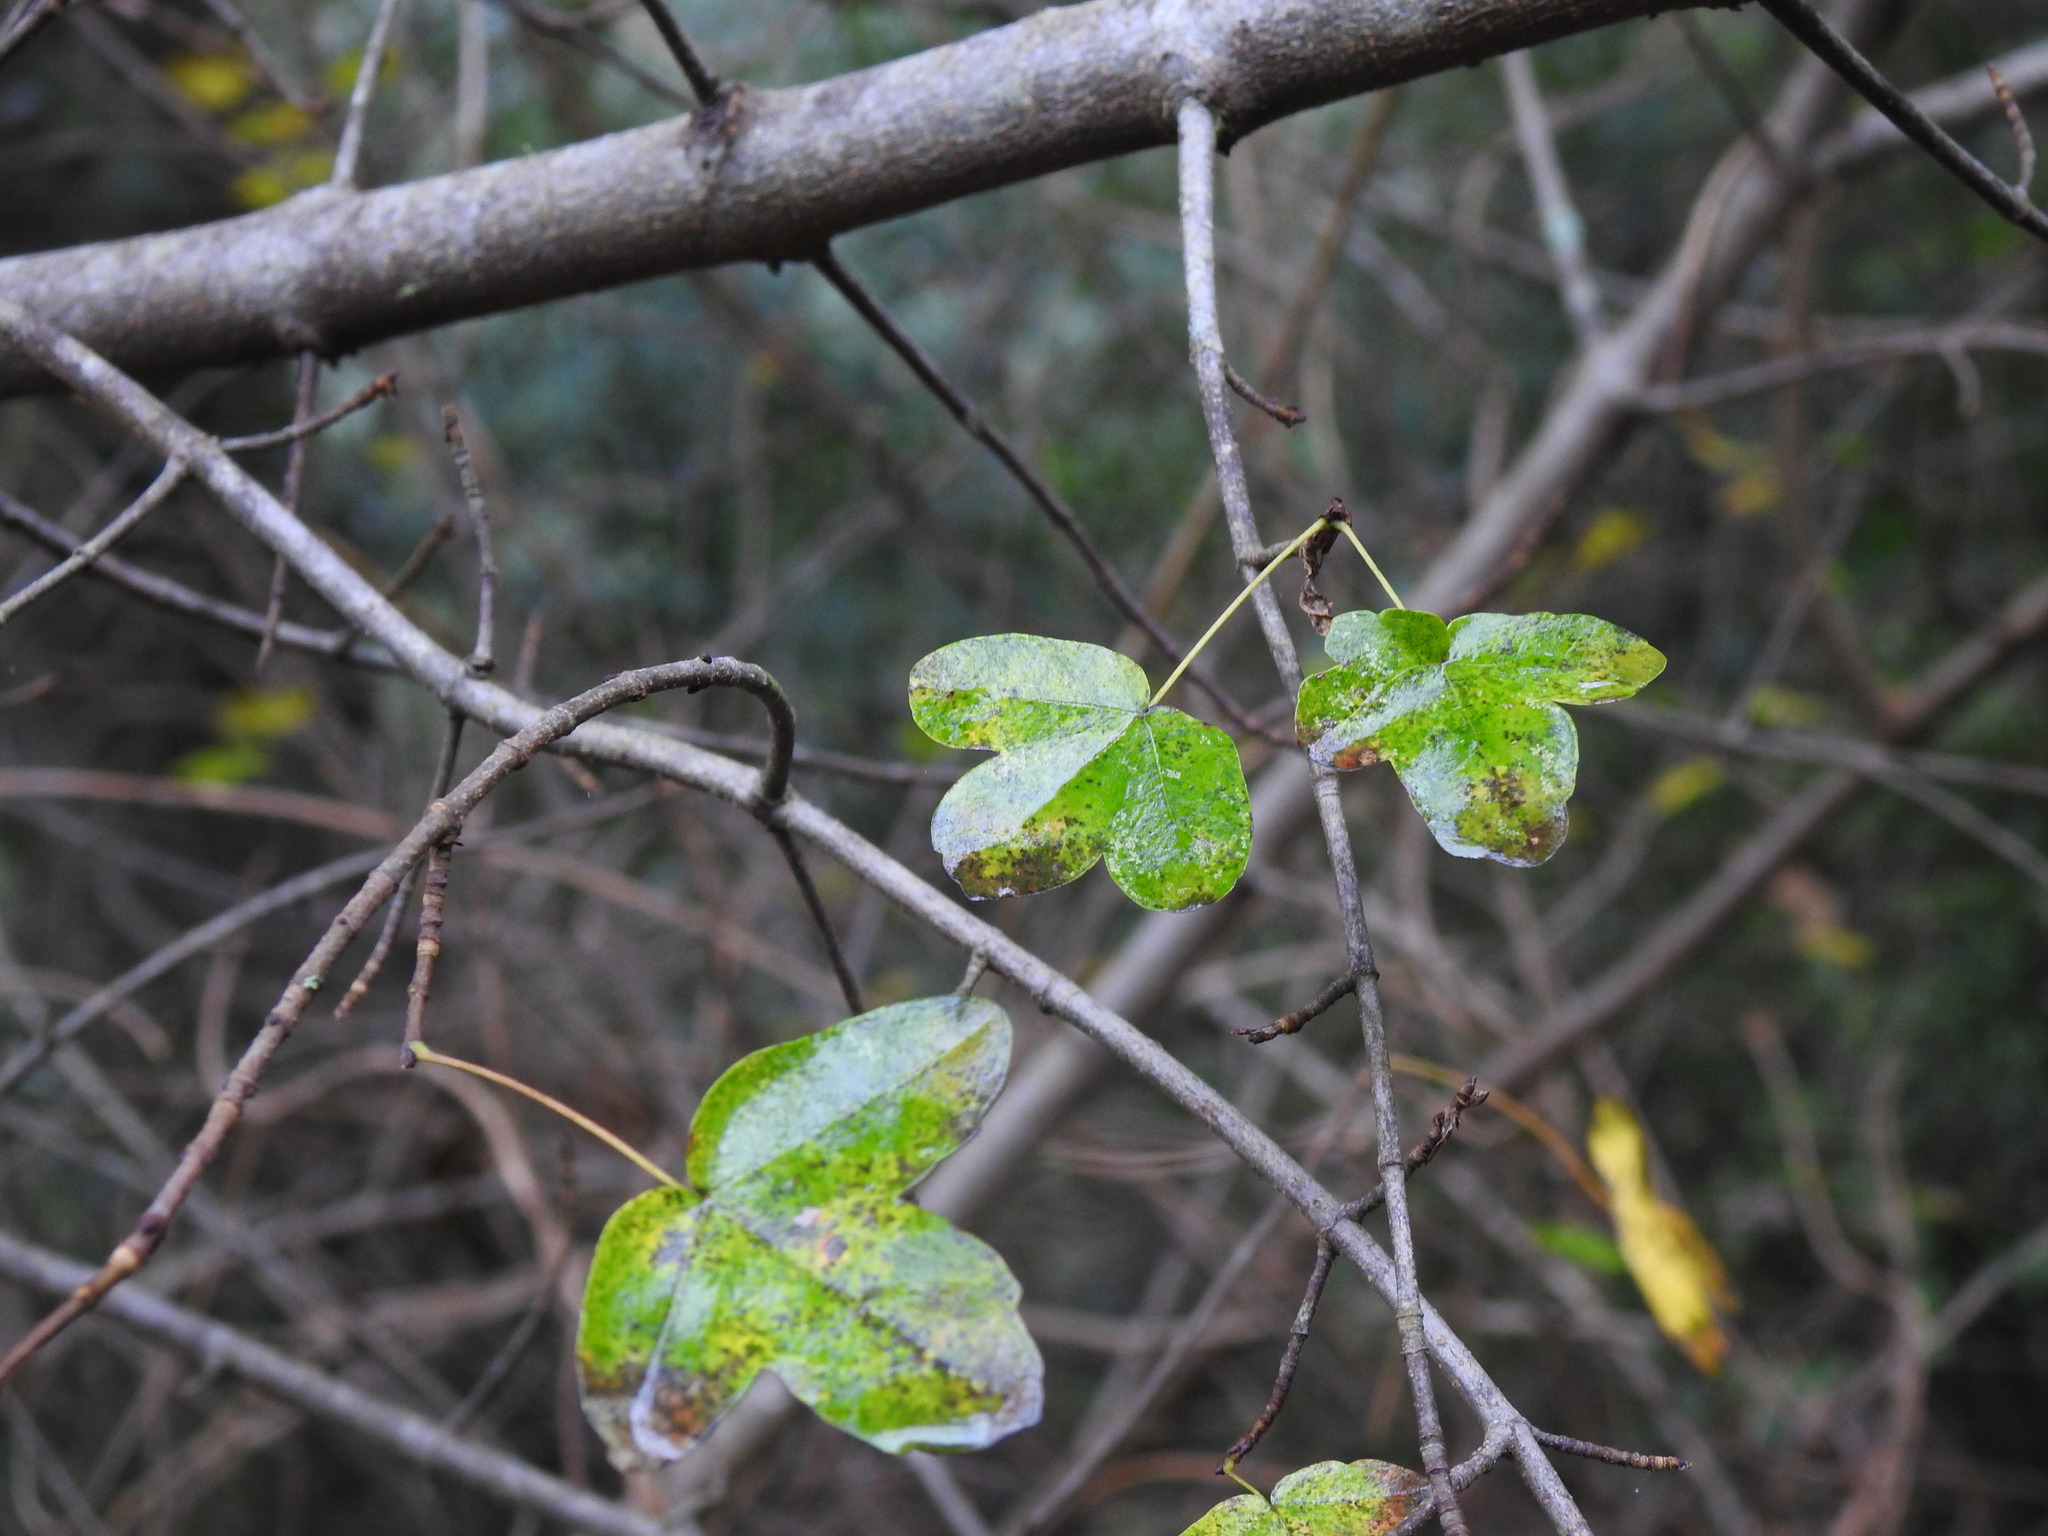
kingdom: Plantae
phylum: Tracheophyta
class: Magnoliopsida
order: Sapindales
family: Sapindaceae
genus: Acer
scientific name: Acer monspessulanum
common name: Montpellier maple
